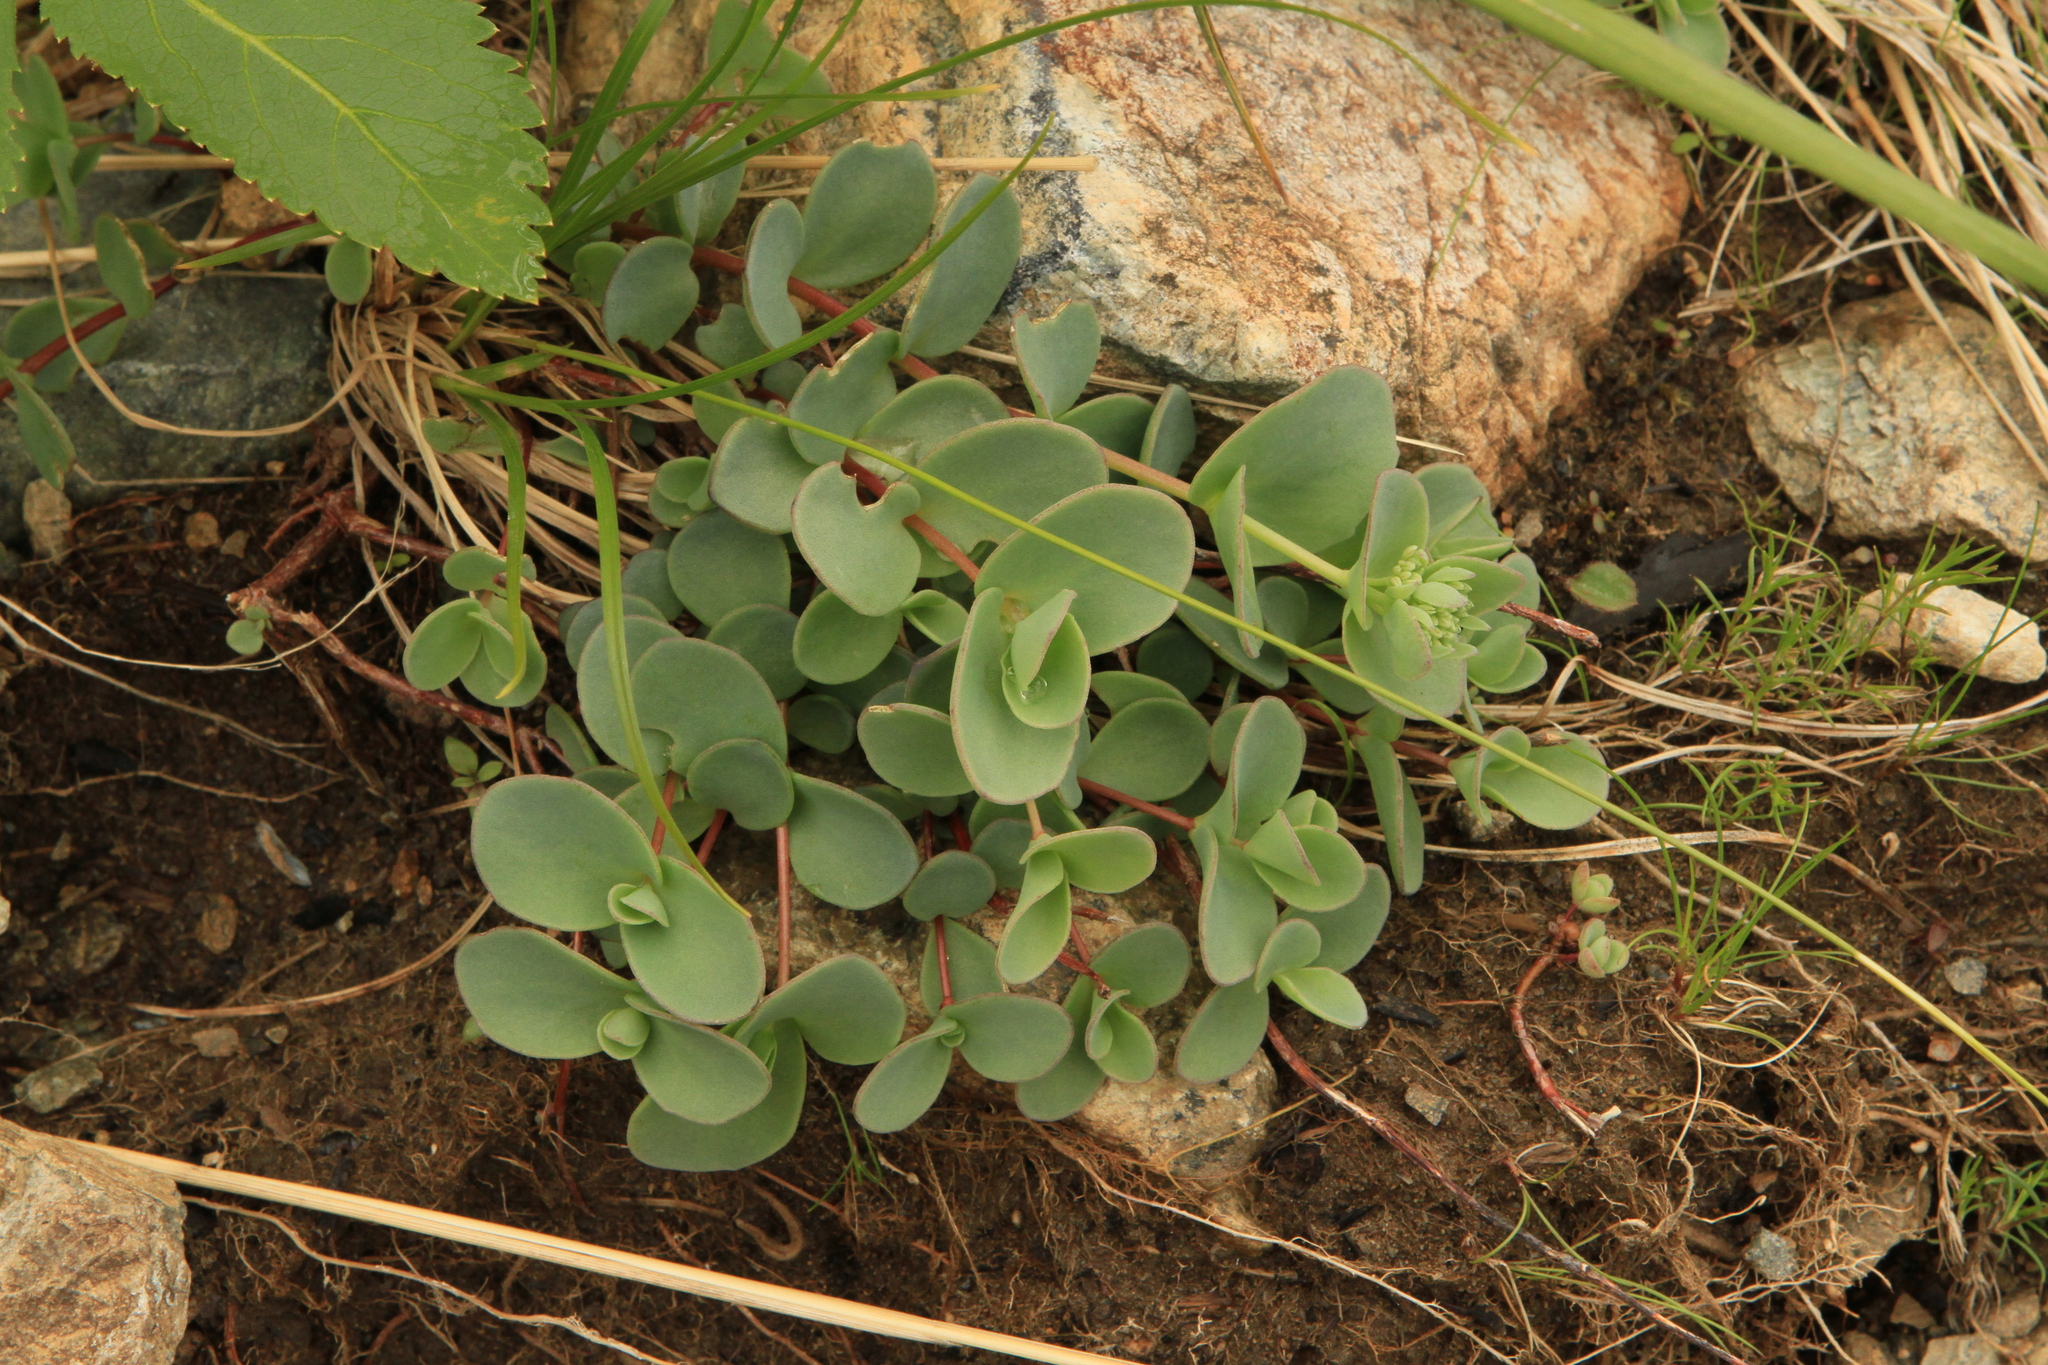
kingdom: Plantae
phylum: Tracheophyta
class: Magnoliopsida
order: Saxifragales
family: Crassulaceae
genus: Hylotelephium
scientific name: Hylotelephium ewersii
